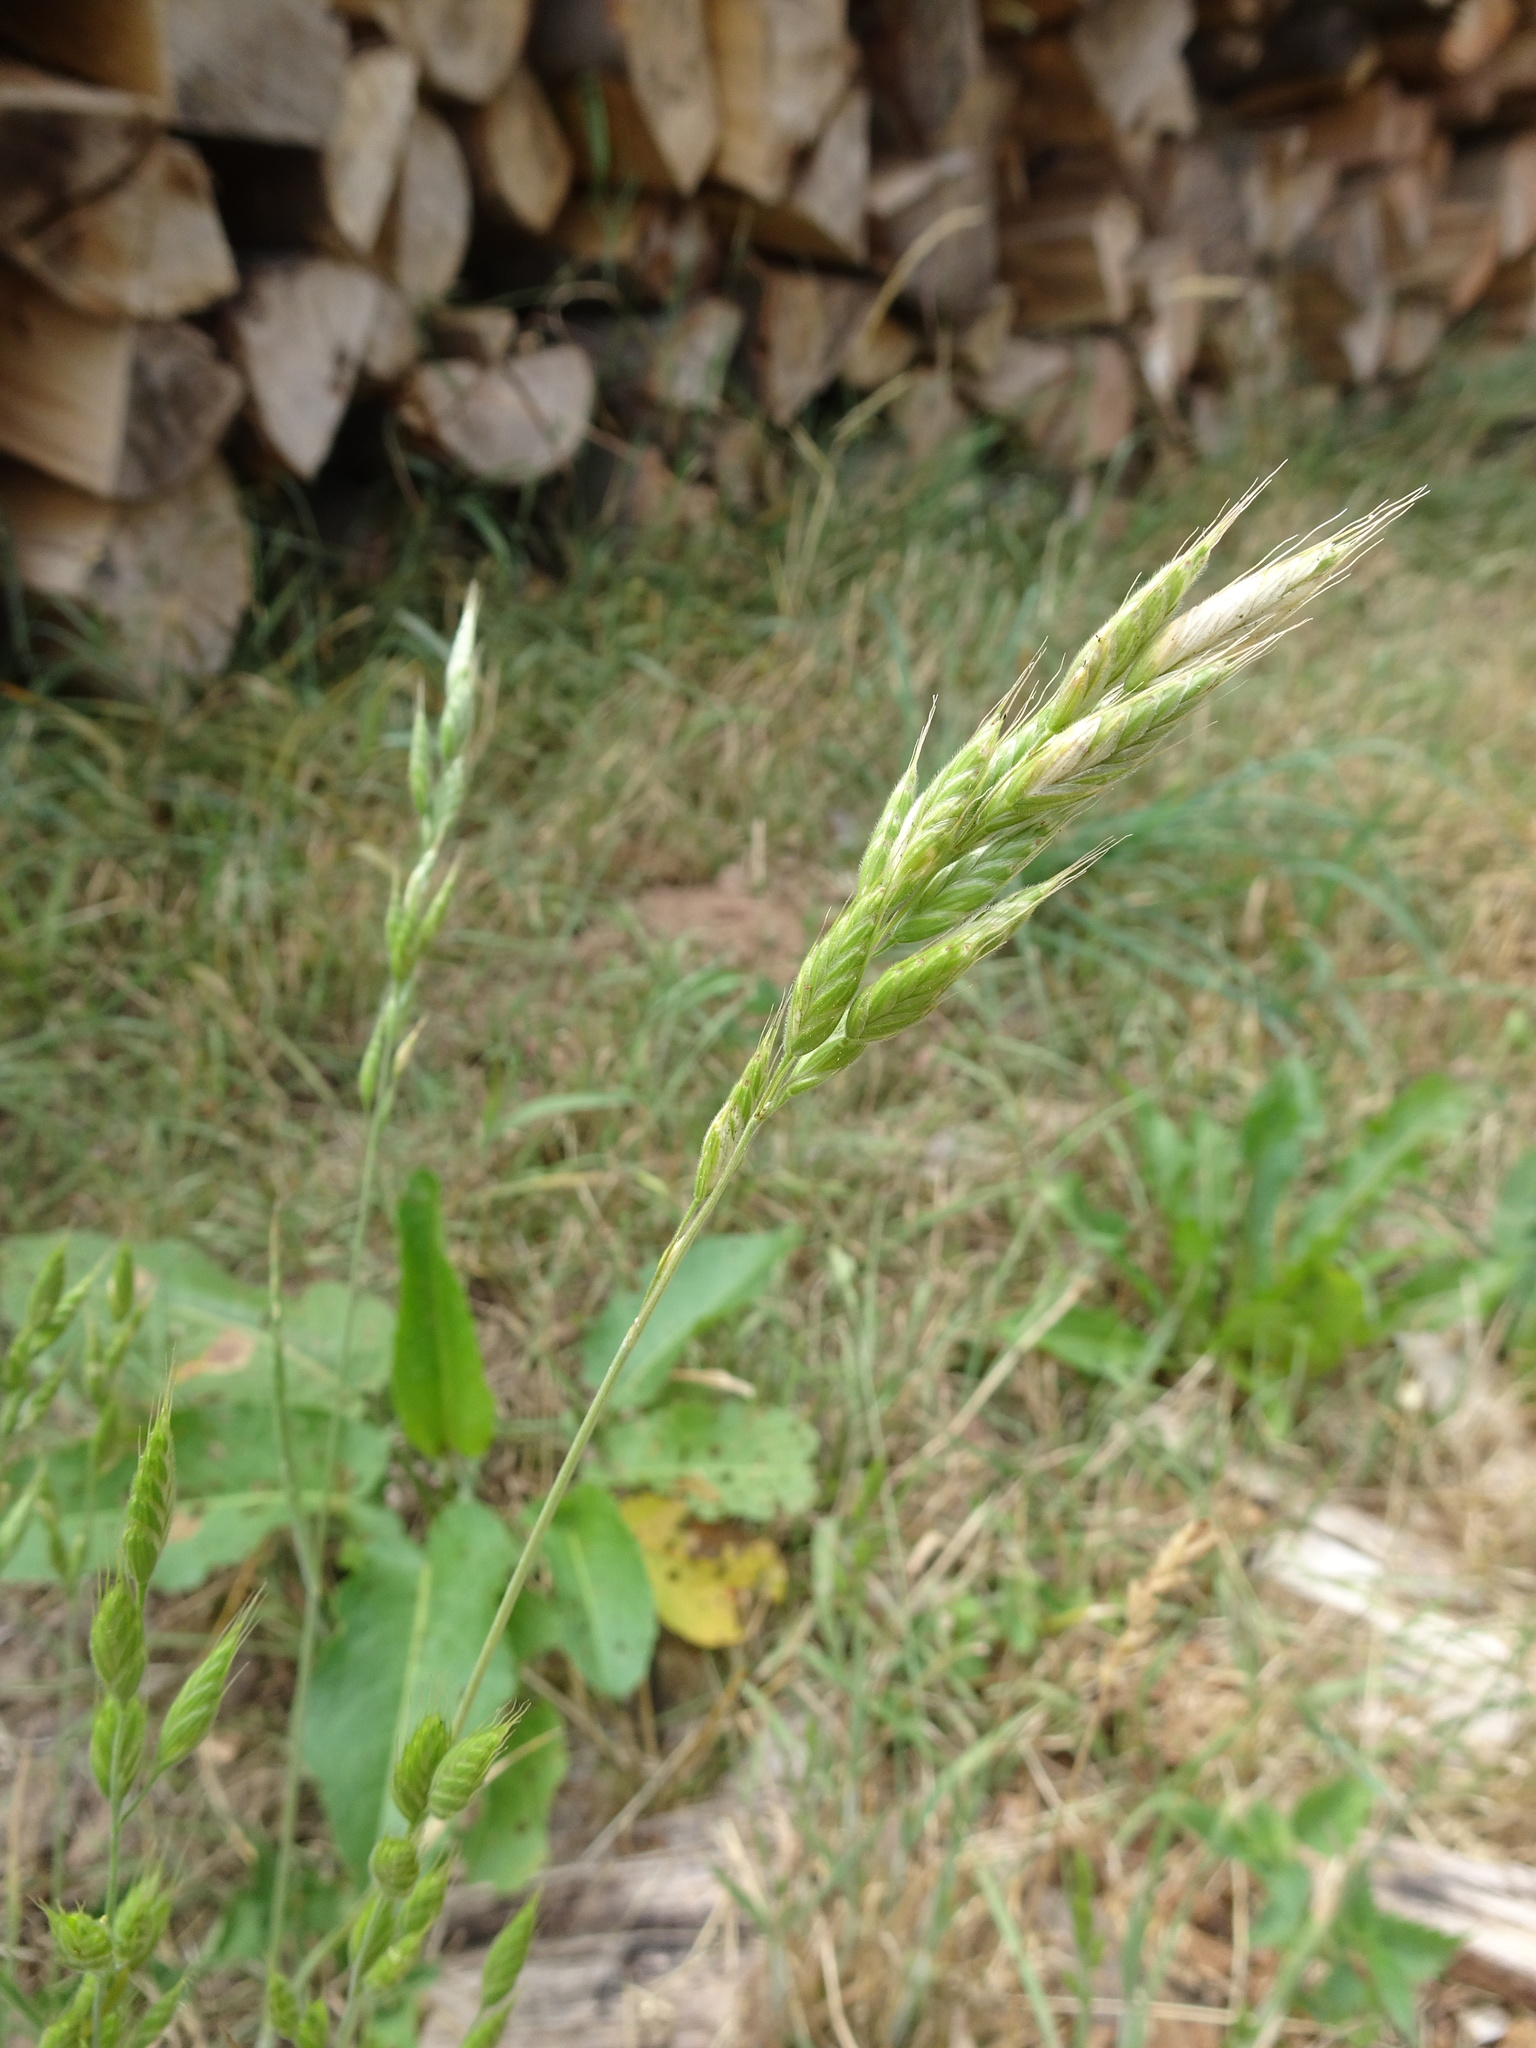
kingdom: Plantae
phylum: Tracheophyta
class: Liliopsida
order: Poales
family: Poaceae
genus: Bromus
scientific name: Bromus hordeaceus
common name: Soft brome
